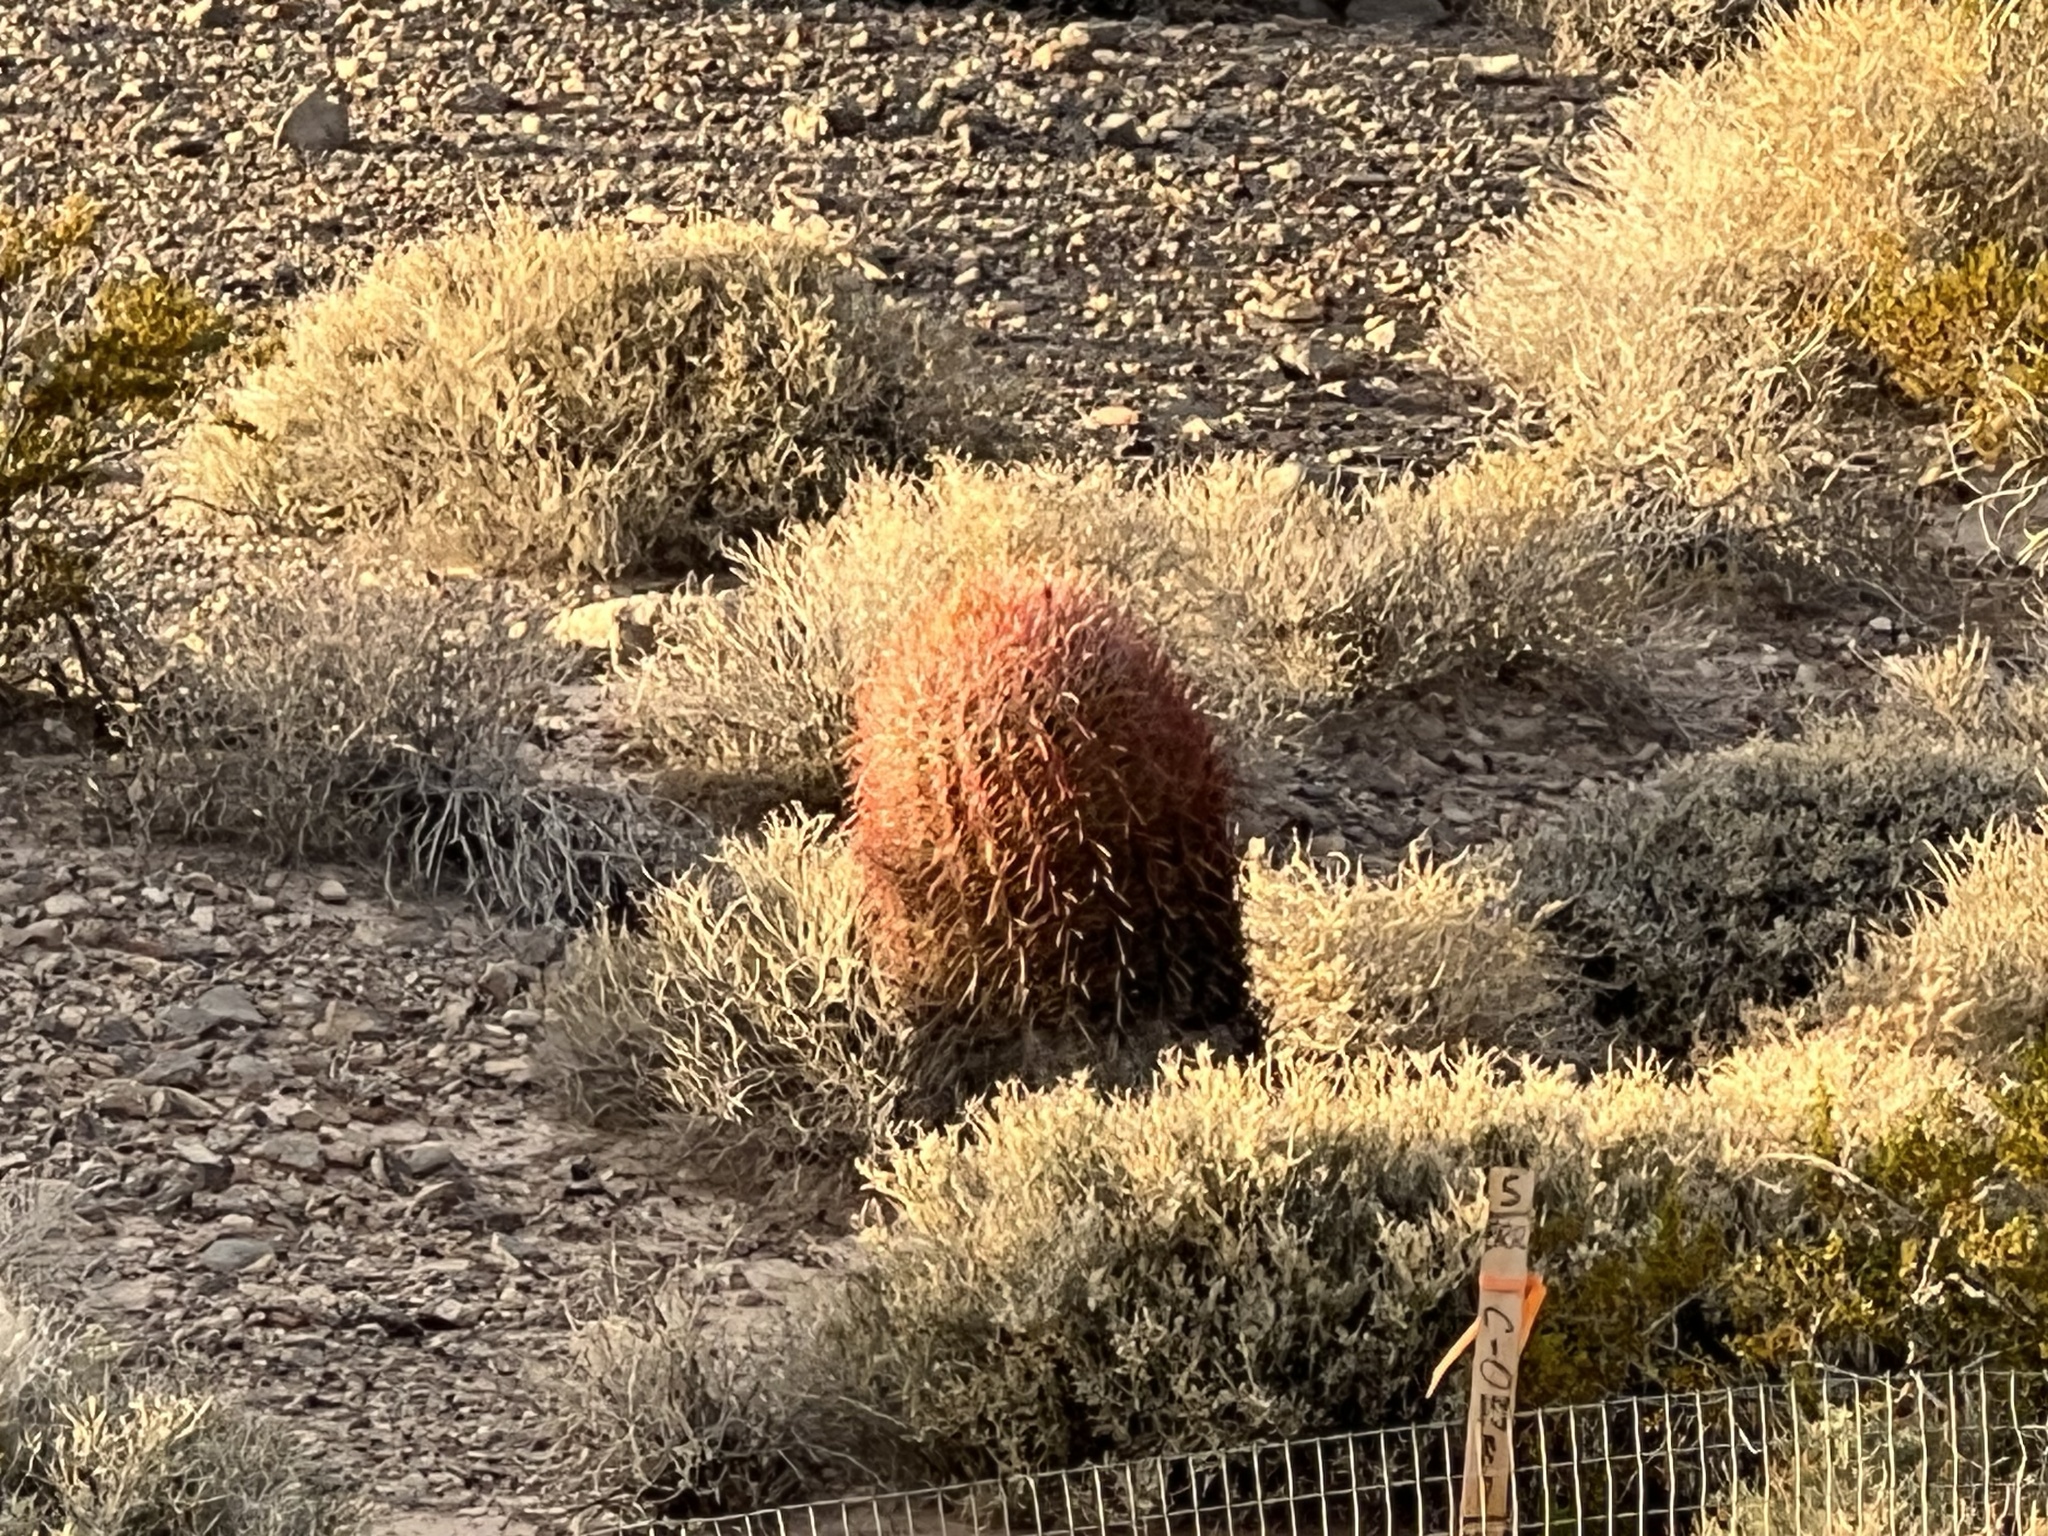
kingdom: Plantae
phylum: Tracheophyta
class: Magnoliopsida
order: Caryophyllales
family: Cactaceae
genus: Ferocactus
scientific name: Ferocactus cylindraceus
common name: California barrel cactus
